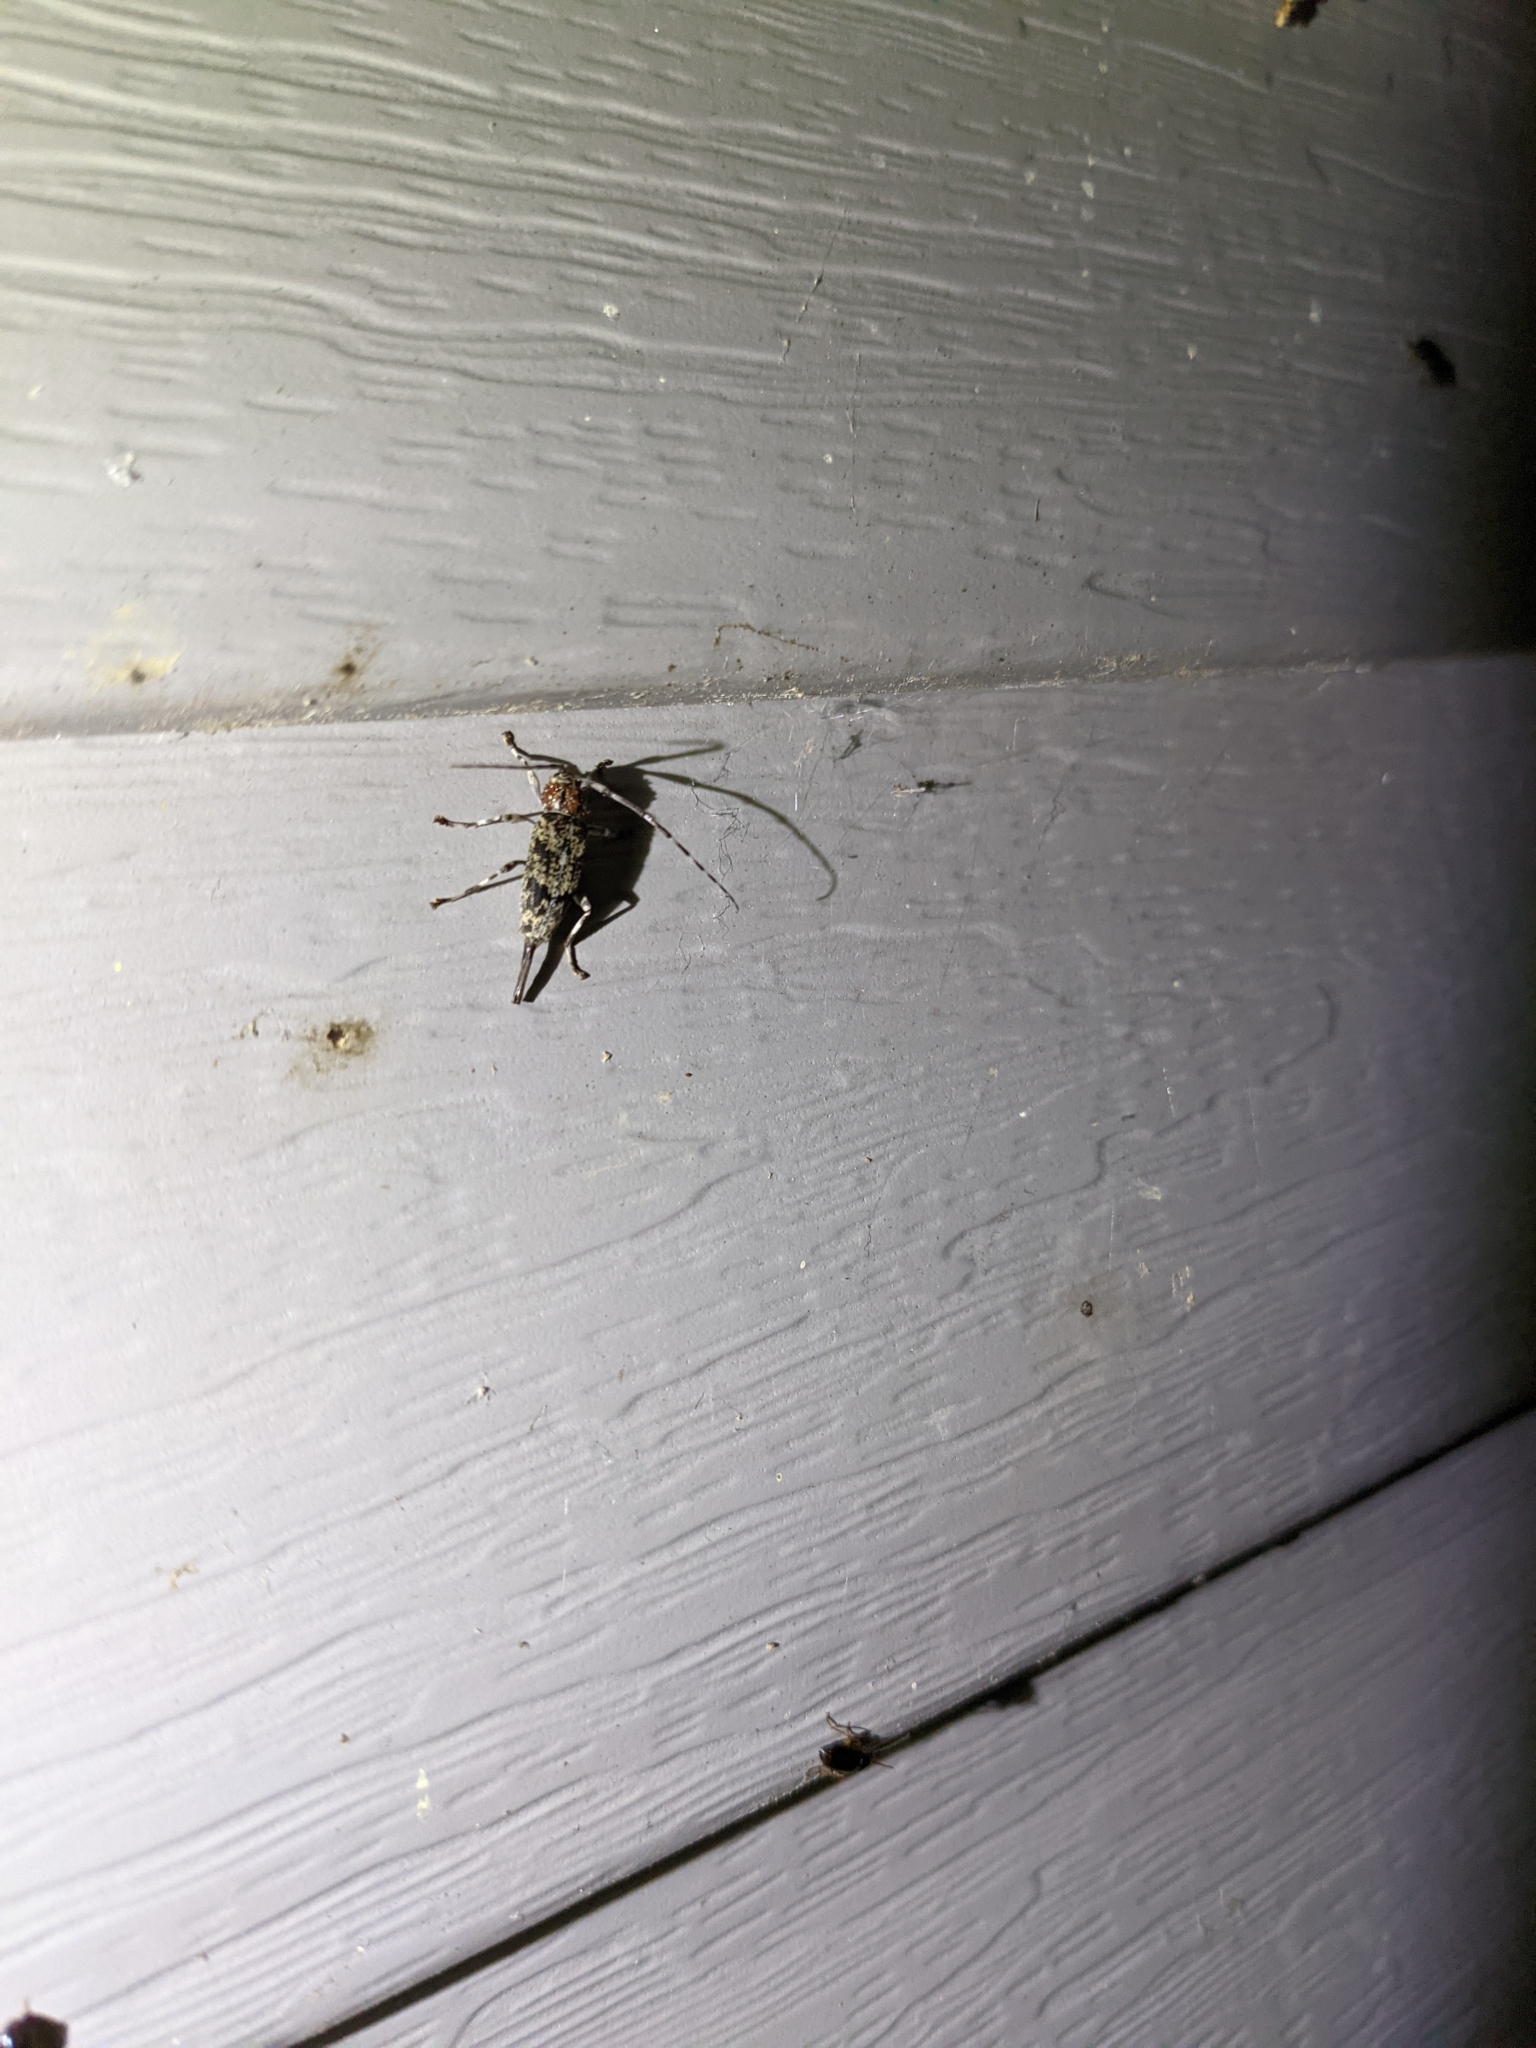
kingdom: Animalia
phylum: Arthropoda
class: Insecta
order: Coleoptera
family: Cerambycidae
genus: Graphisurus
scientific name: Graphisurus fasciatus
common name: Banded graphisurus
